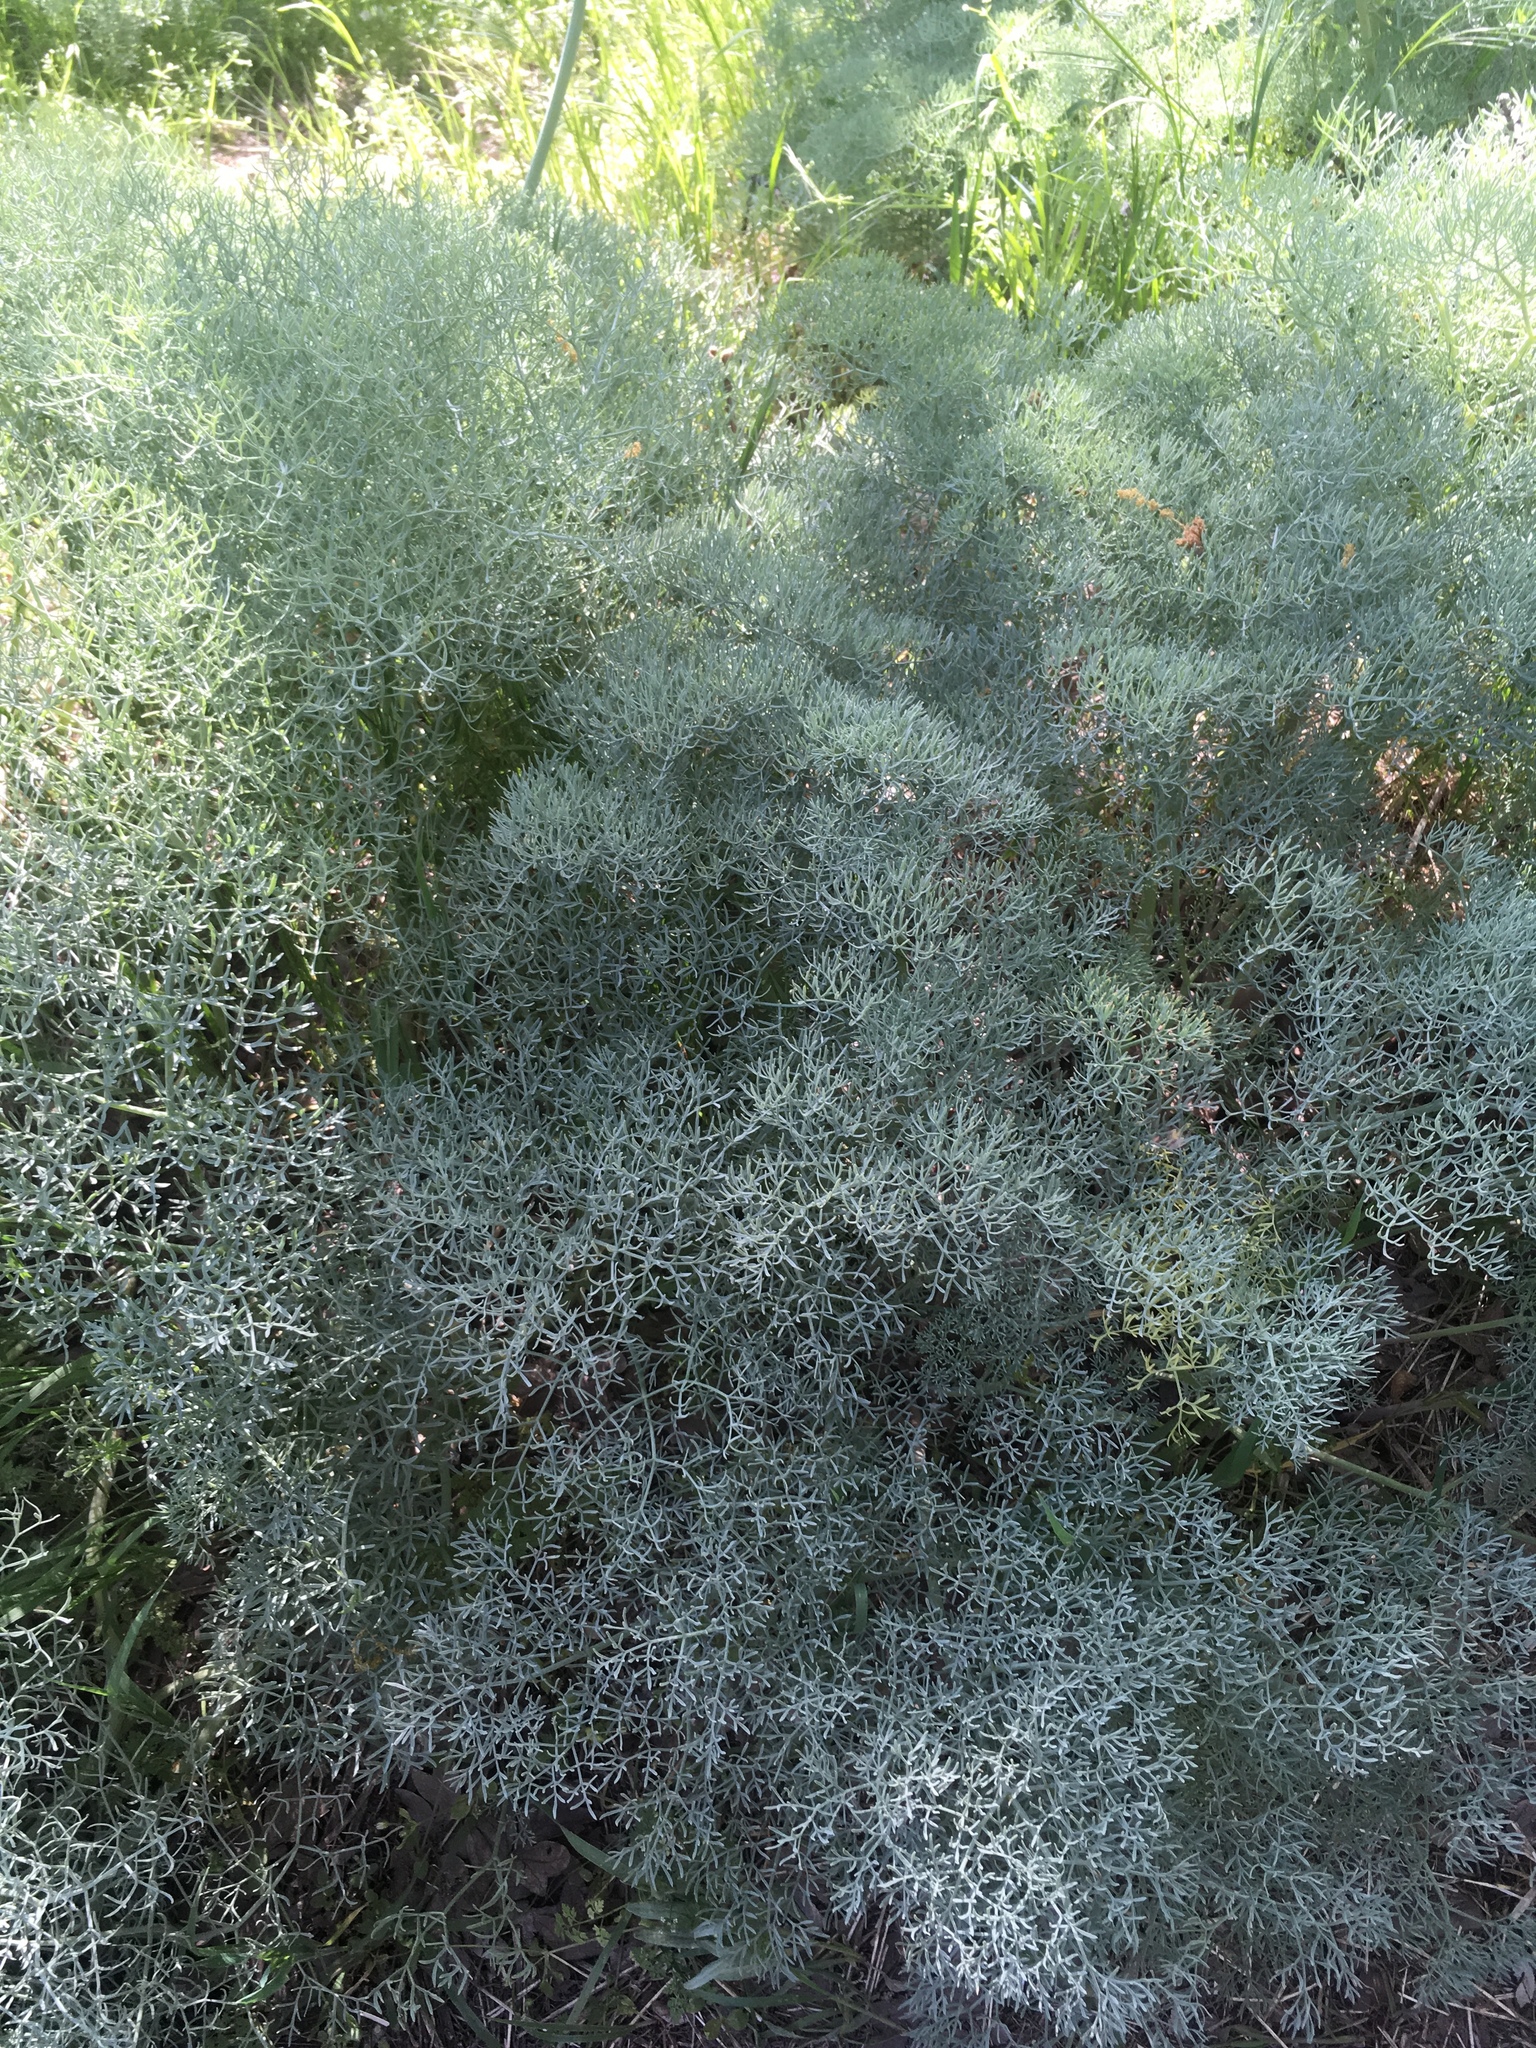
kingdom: Plantae
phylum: Tracheophyta
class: Magnoliopsida
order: Apiales
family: Apiaceae
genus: Lomatium
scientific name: Lomatium columbianum
